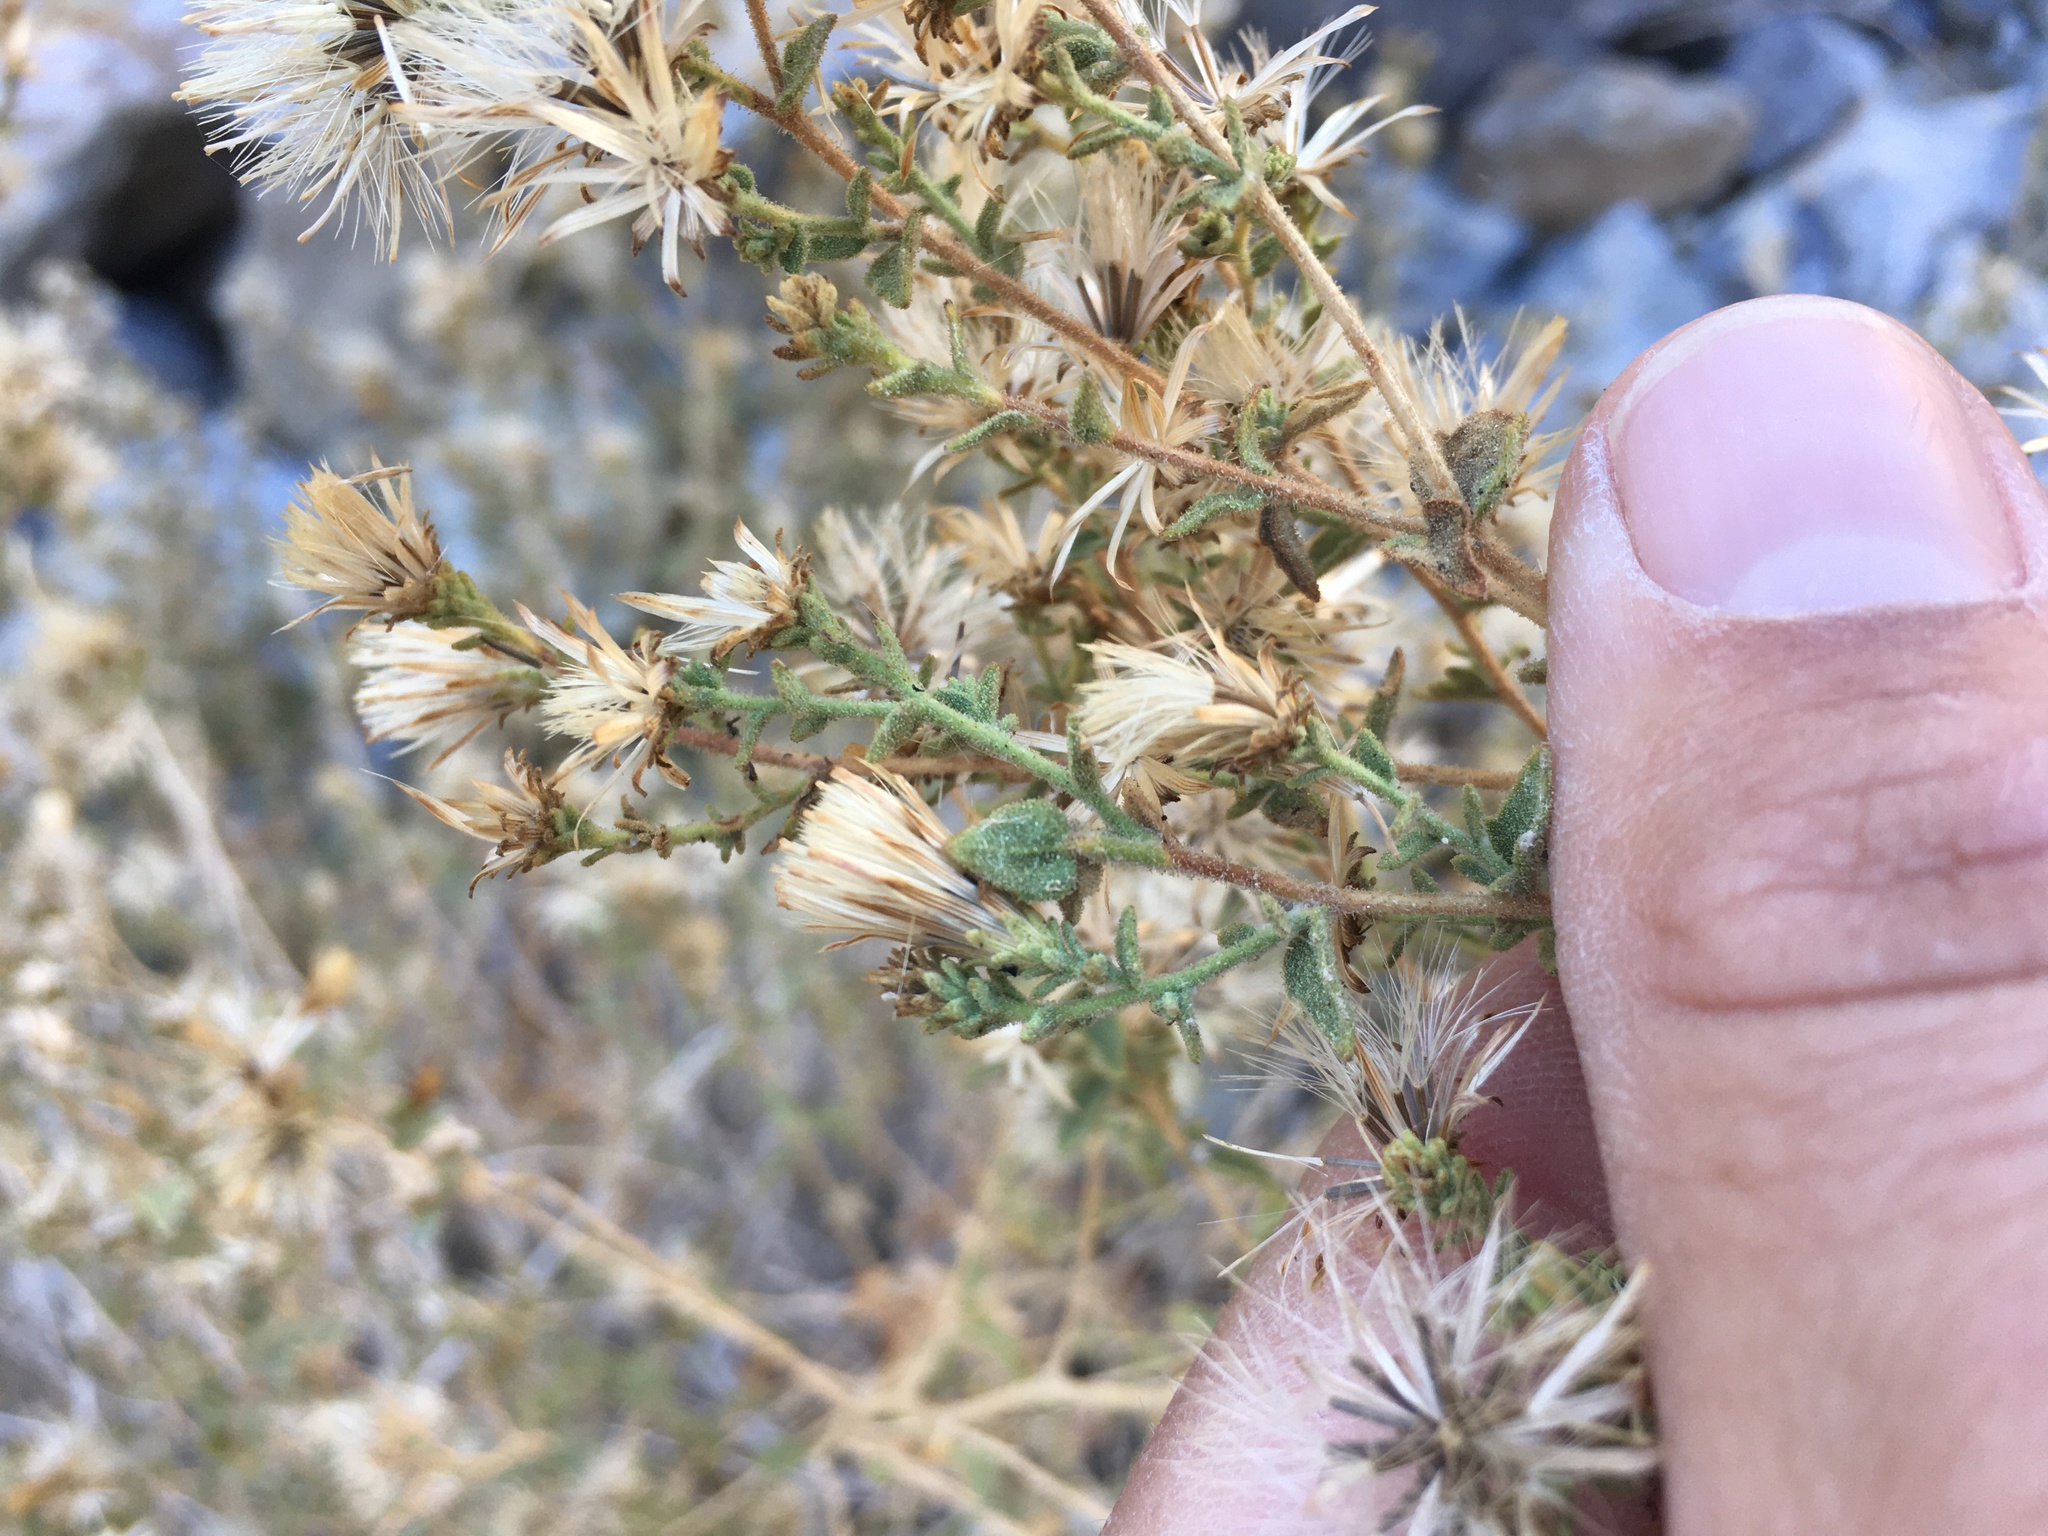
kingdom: Plantae
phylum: Tracheophyta
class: Magnoliopsida
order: Asterales
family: Asteraceae
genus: Brickellia
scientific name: Brickellia microphylla
